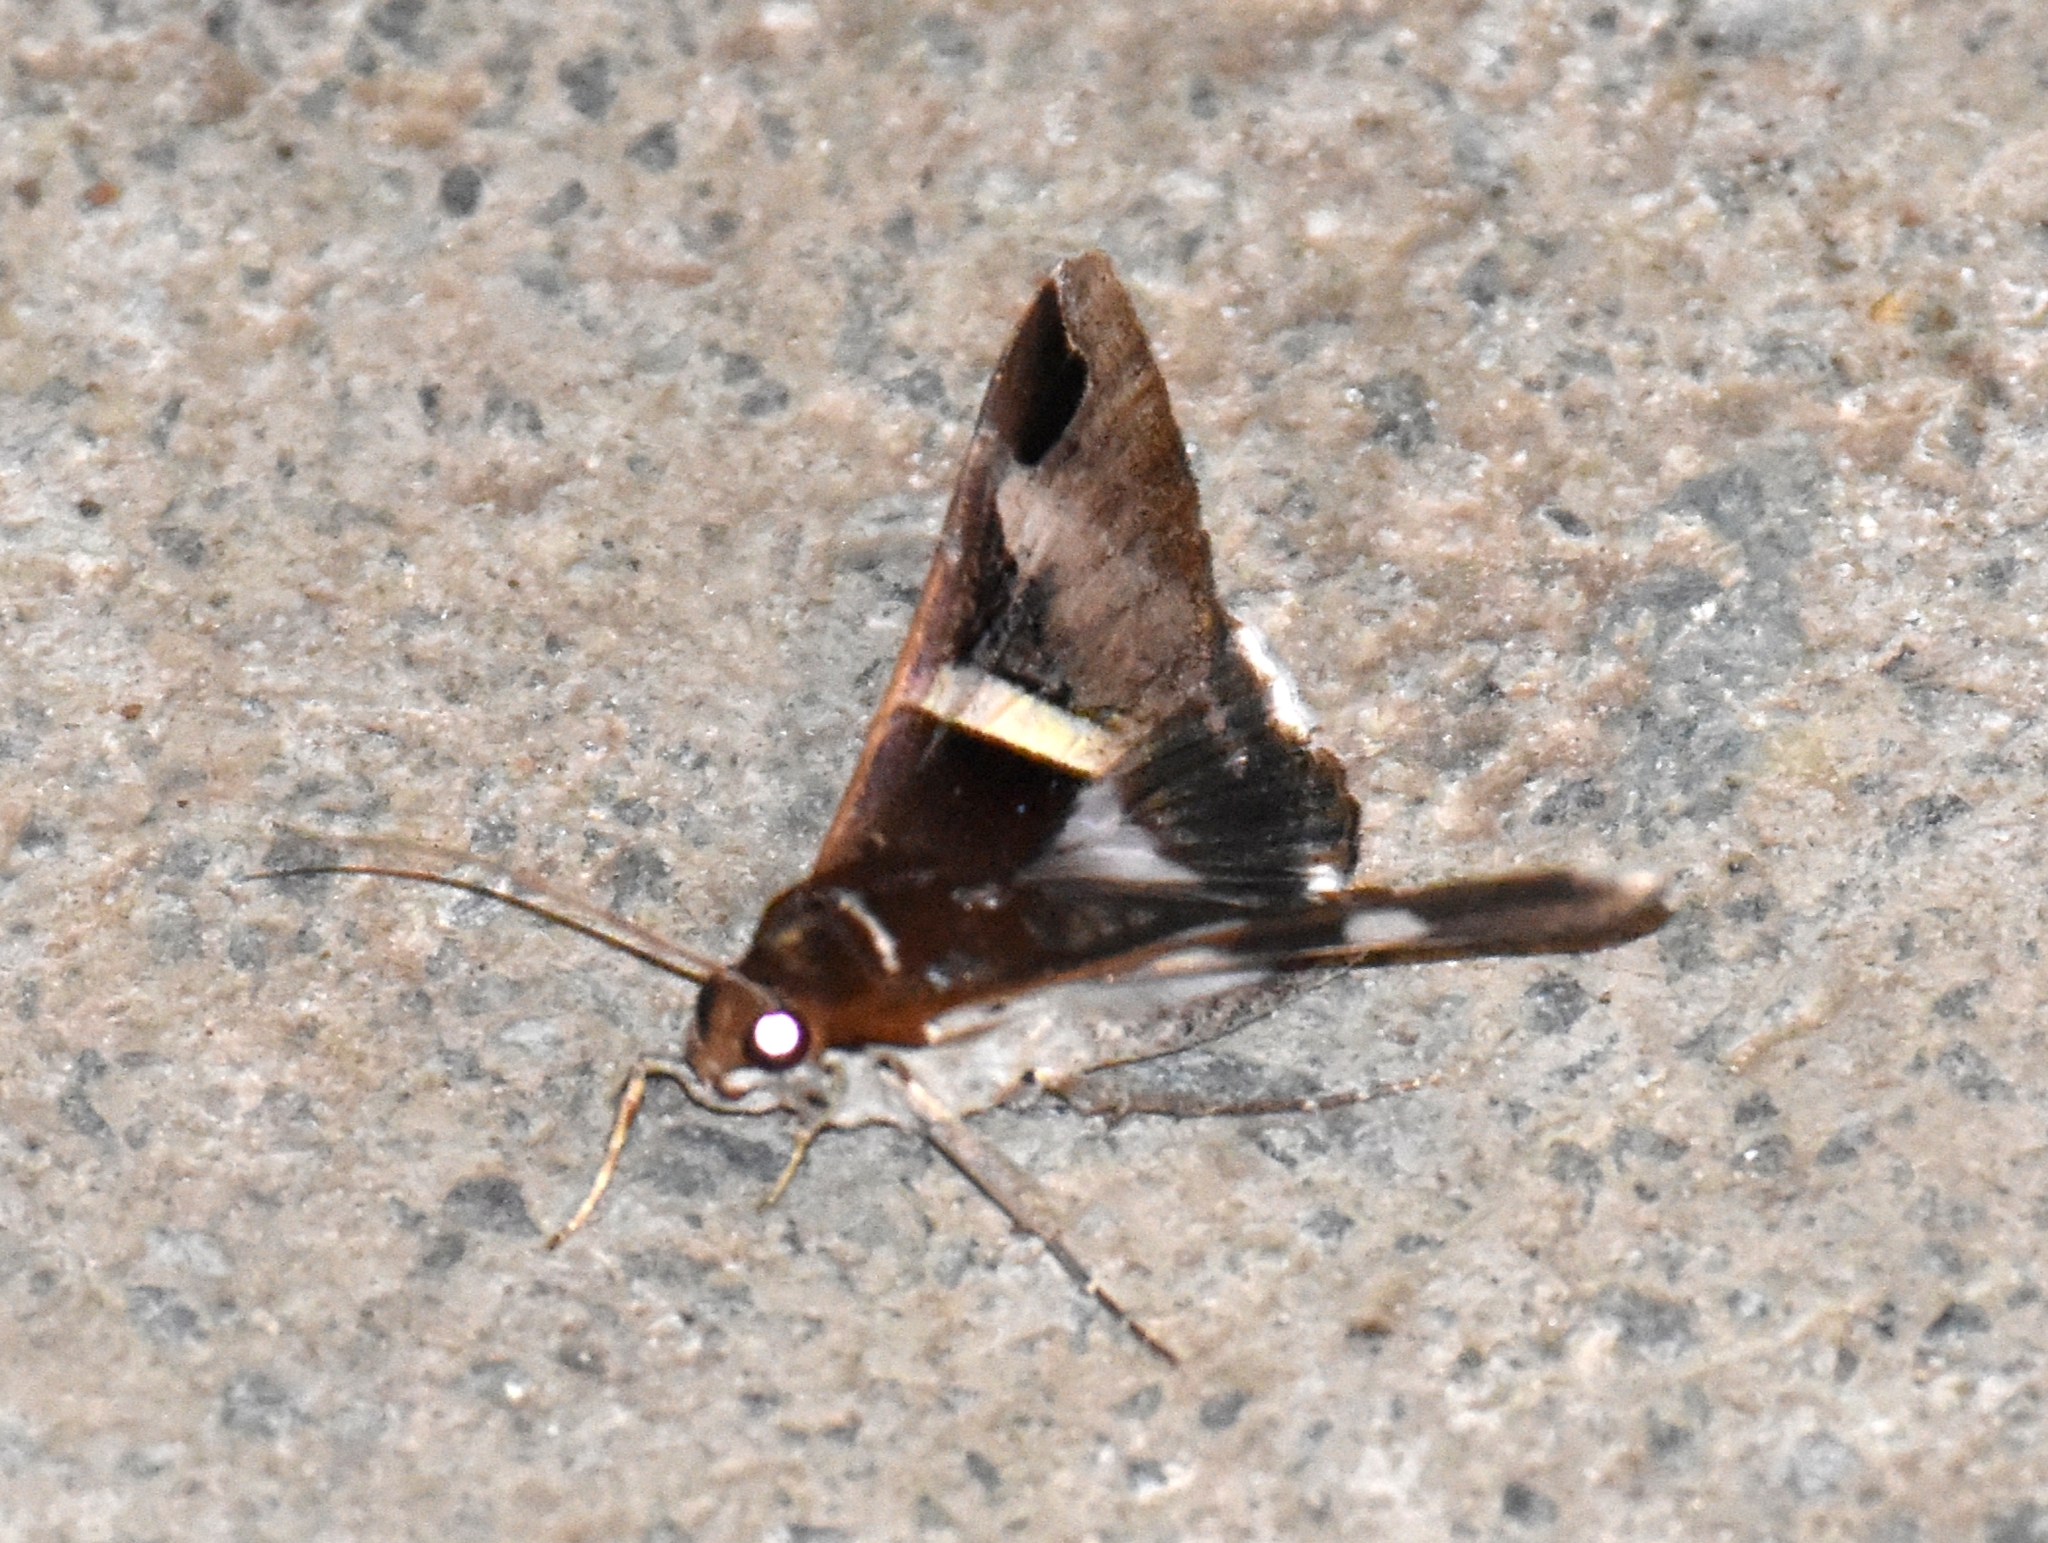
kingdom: Animalia
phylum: Arthropoda
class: Insecta
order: Lepidoptera
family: Erebidae
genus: Melipotis
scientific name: Melipotis fasciolaris
